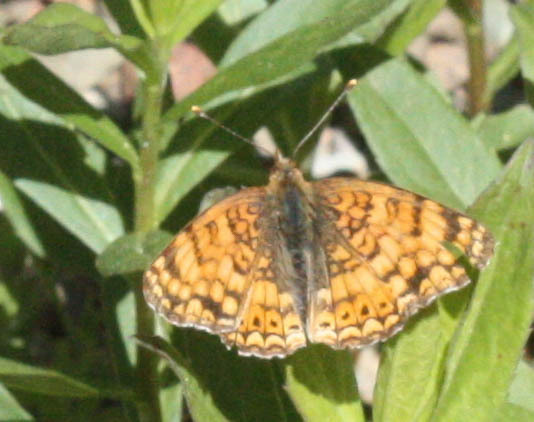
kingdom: Animalia
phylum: Arthropoda
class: Insecta
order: Lepidoptera
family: Nymphalidae
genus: Eresia
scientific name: Eresia aveyrona
